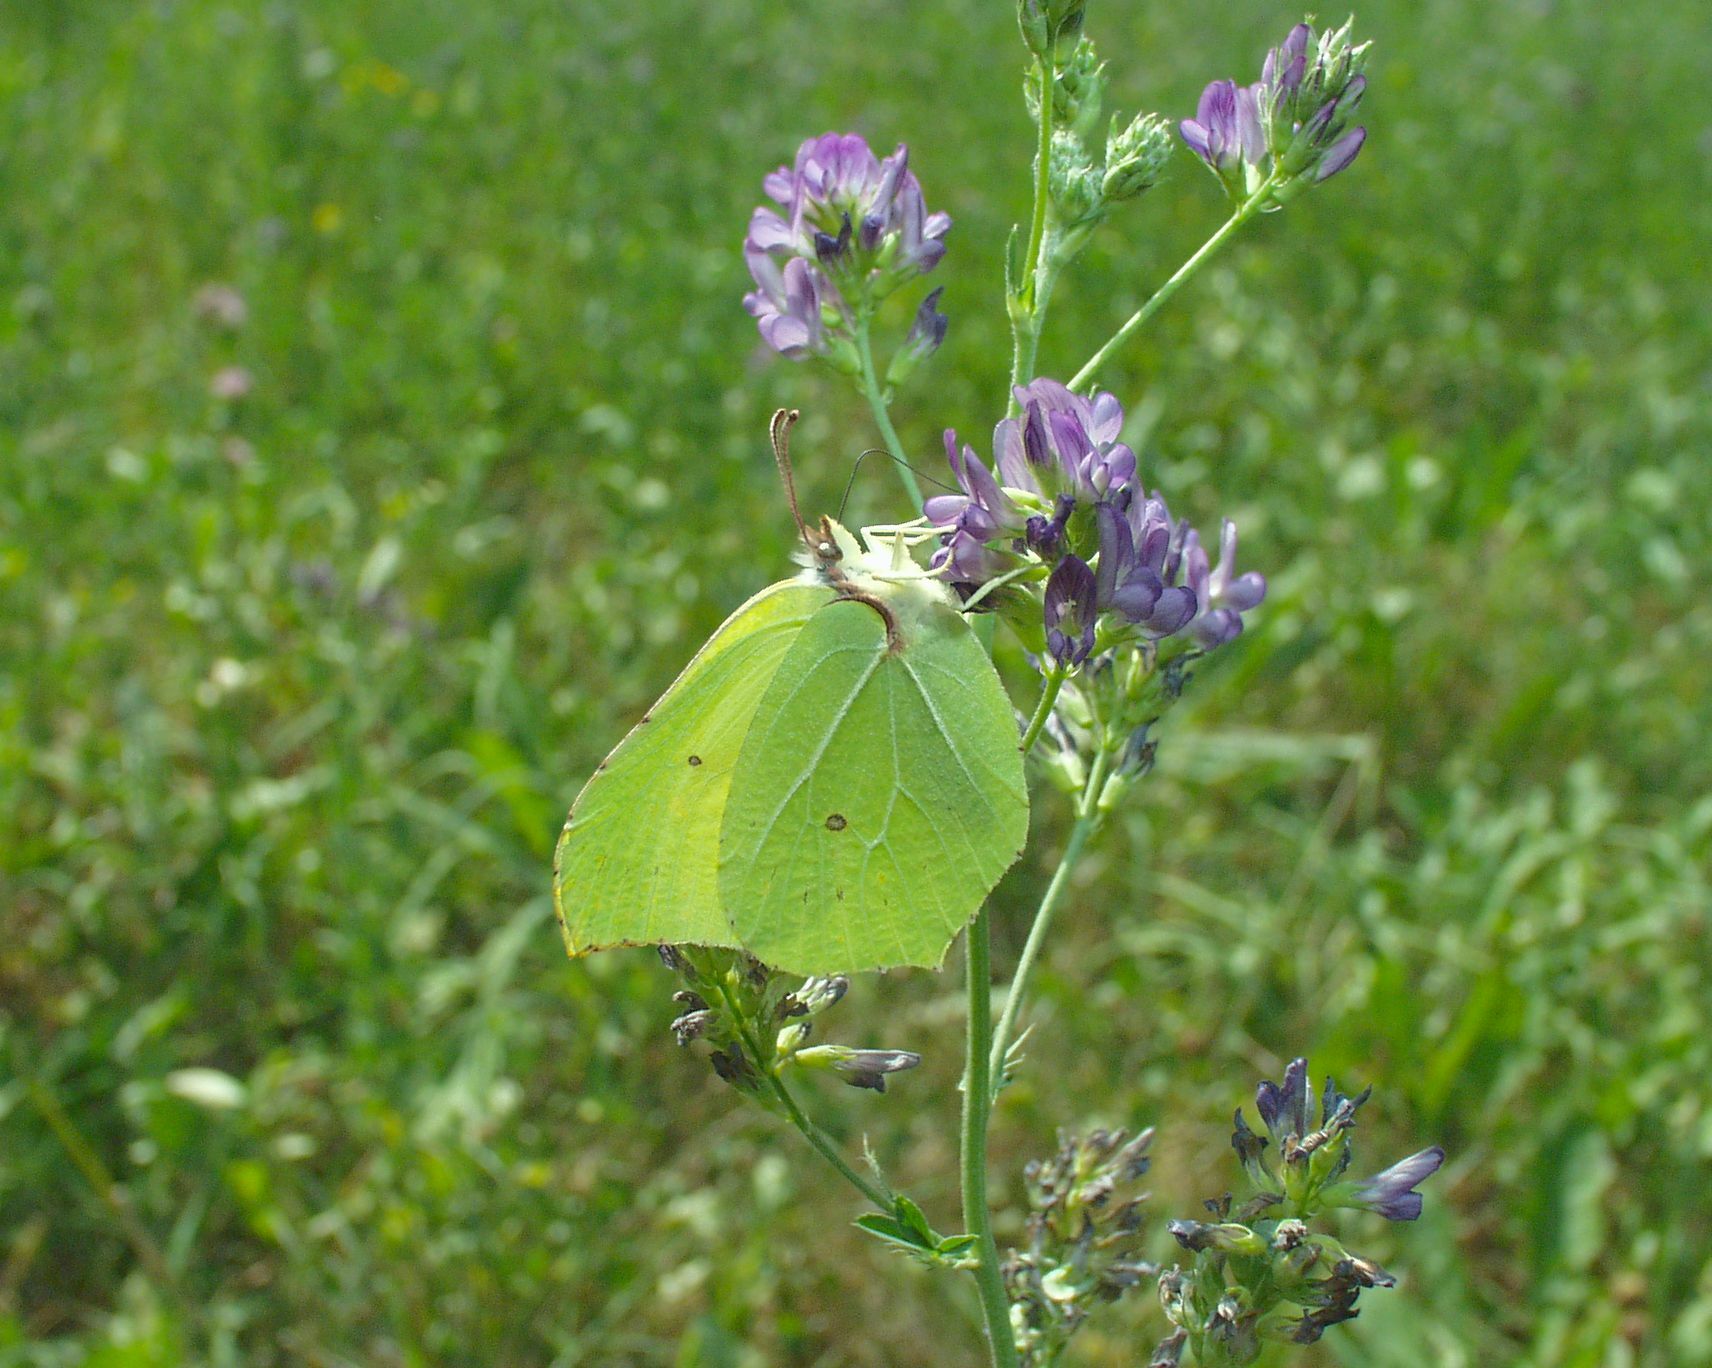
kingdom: Animalia
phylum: Arthropoda
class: Insecta
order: Lepidoptera
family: Pieridae
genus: Gonepteryx
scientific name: Gonepteryx rhamni
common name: Brimstone
